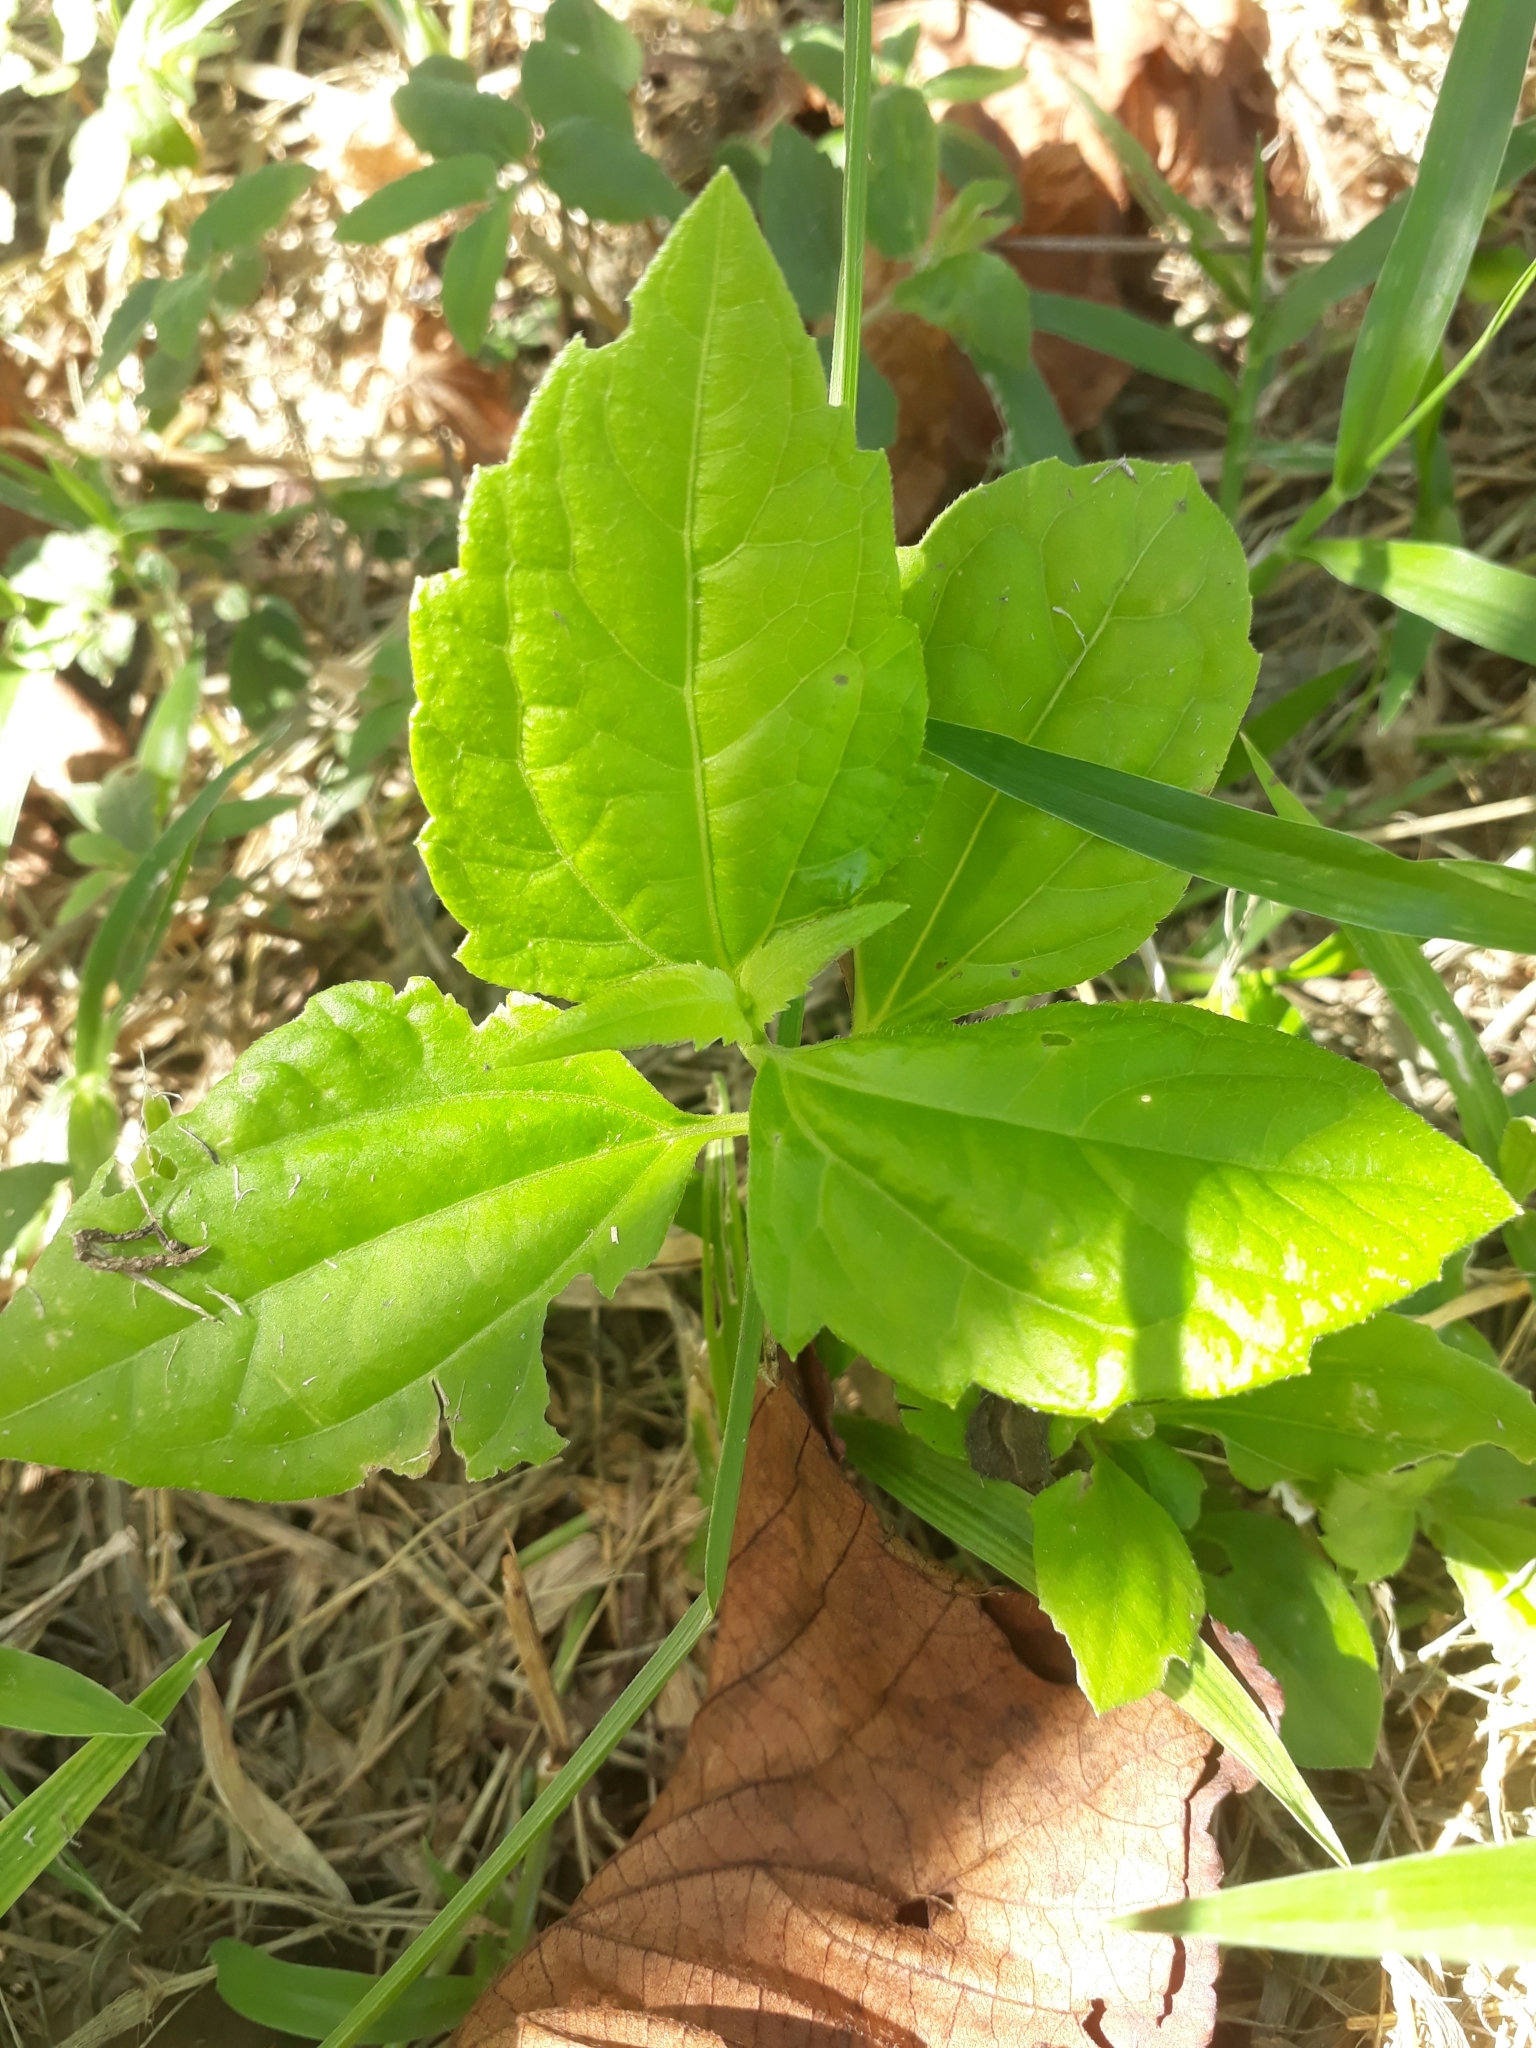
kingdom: Plantae
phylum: Tracheophyta
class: Magnoliopsida
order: Asterales
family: Asteraceae
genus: Chromolaena
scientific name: Chromolaena odorata
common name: Siamweed
